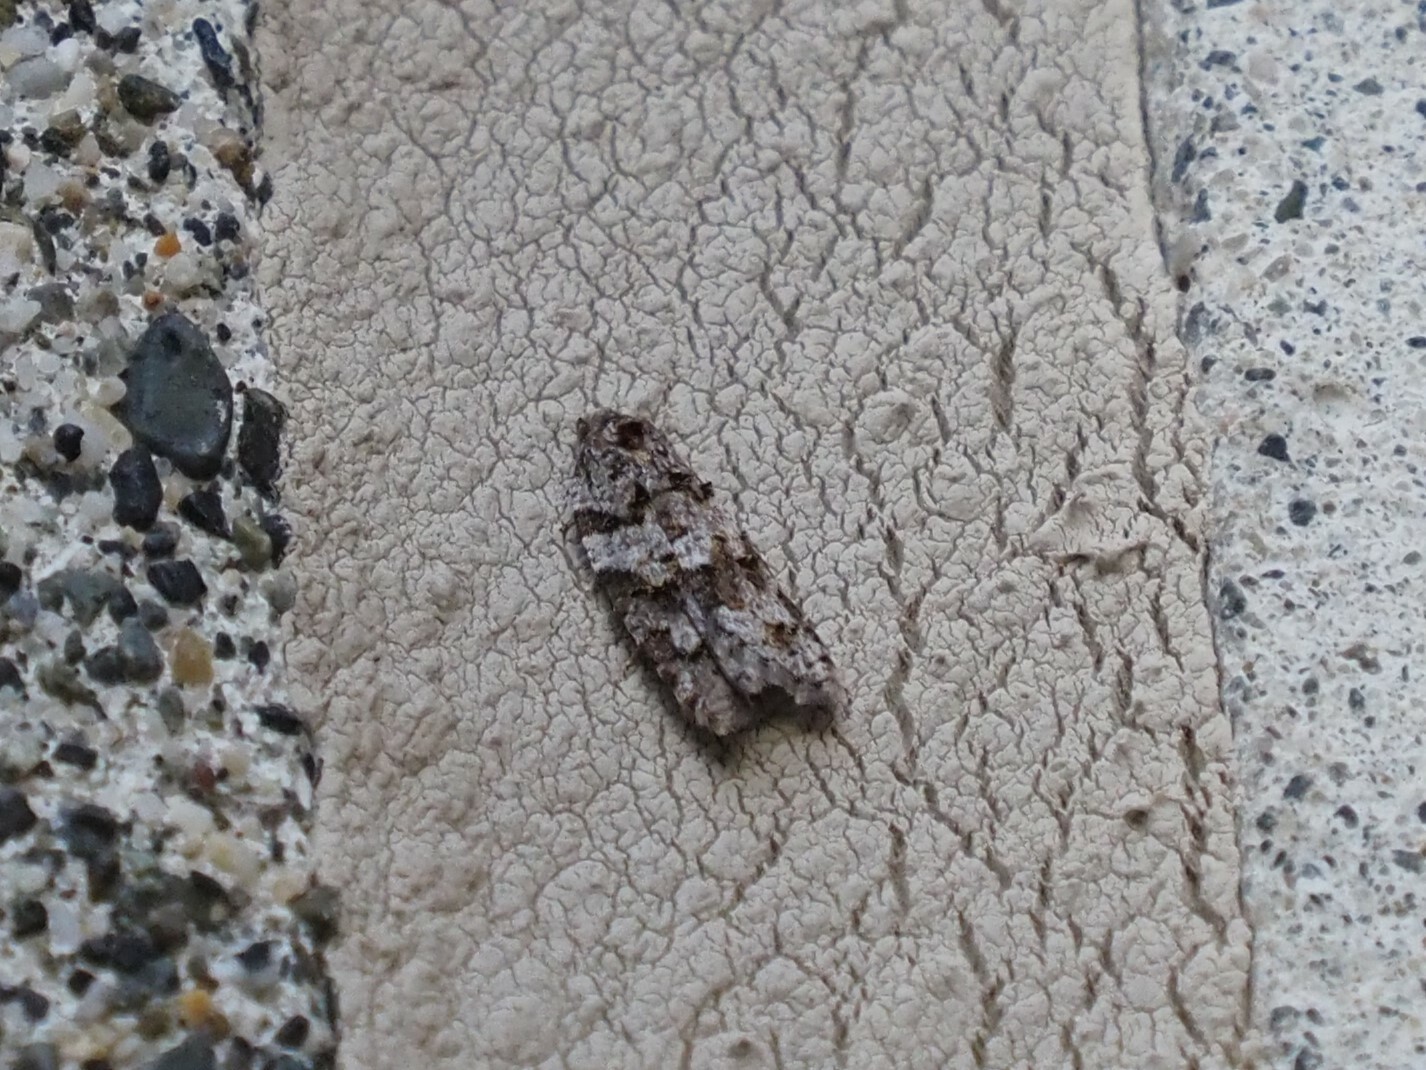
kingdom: Animalia
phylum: Arthropoda
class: Insecta
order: Lepidoptera
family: Tortricidae
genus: Acleris
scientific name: Acleris gloveranus
